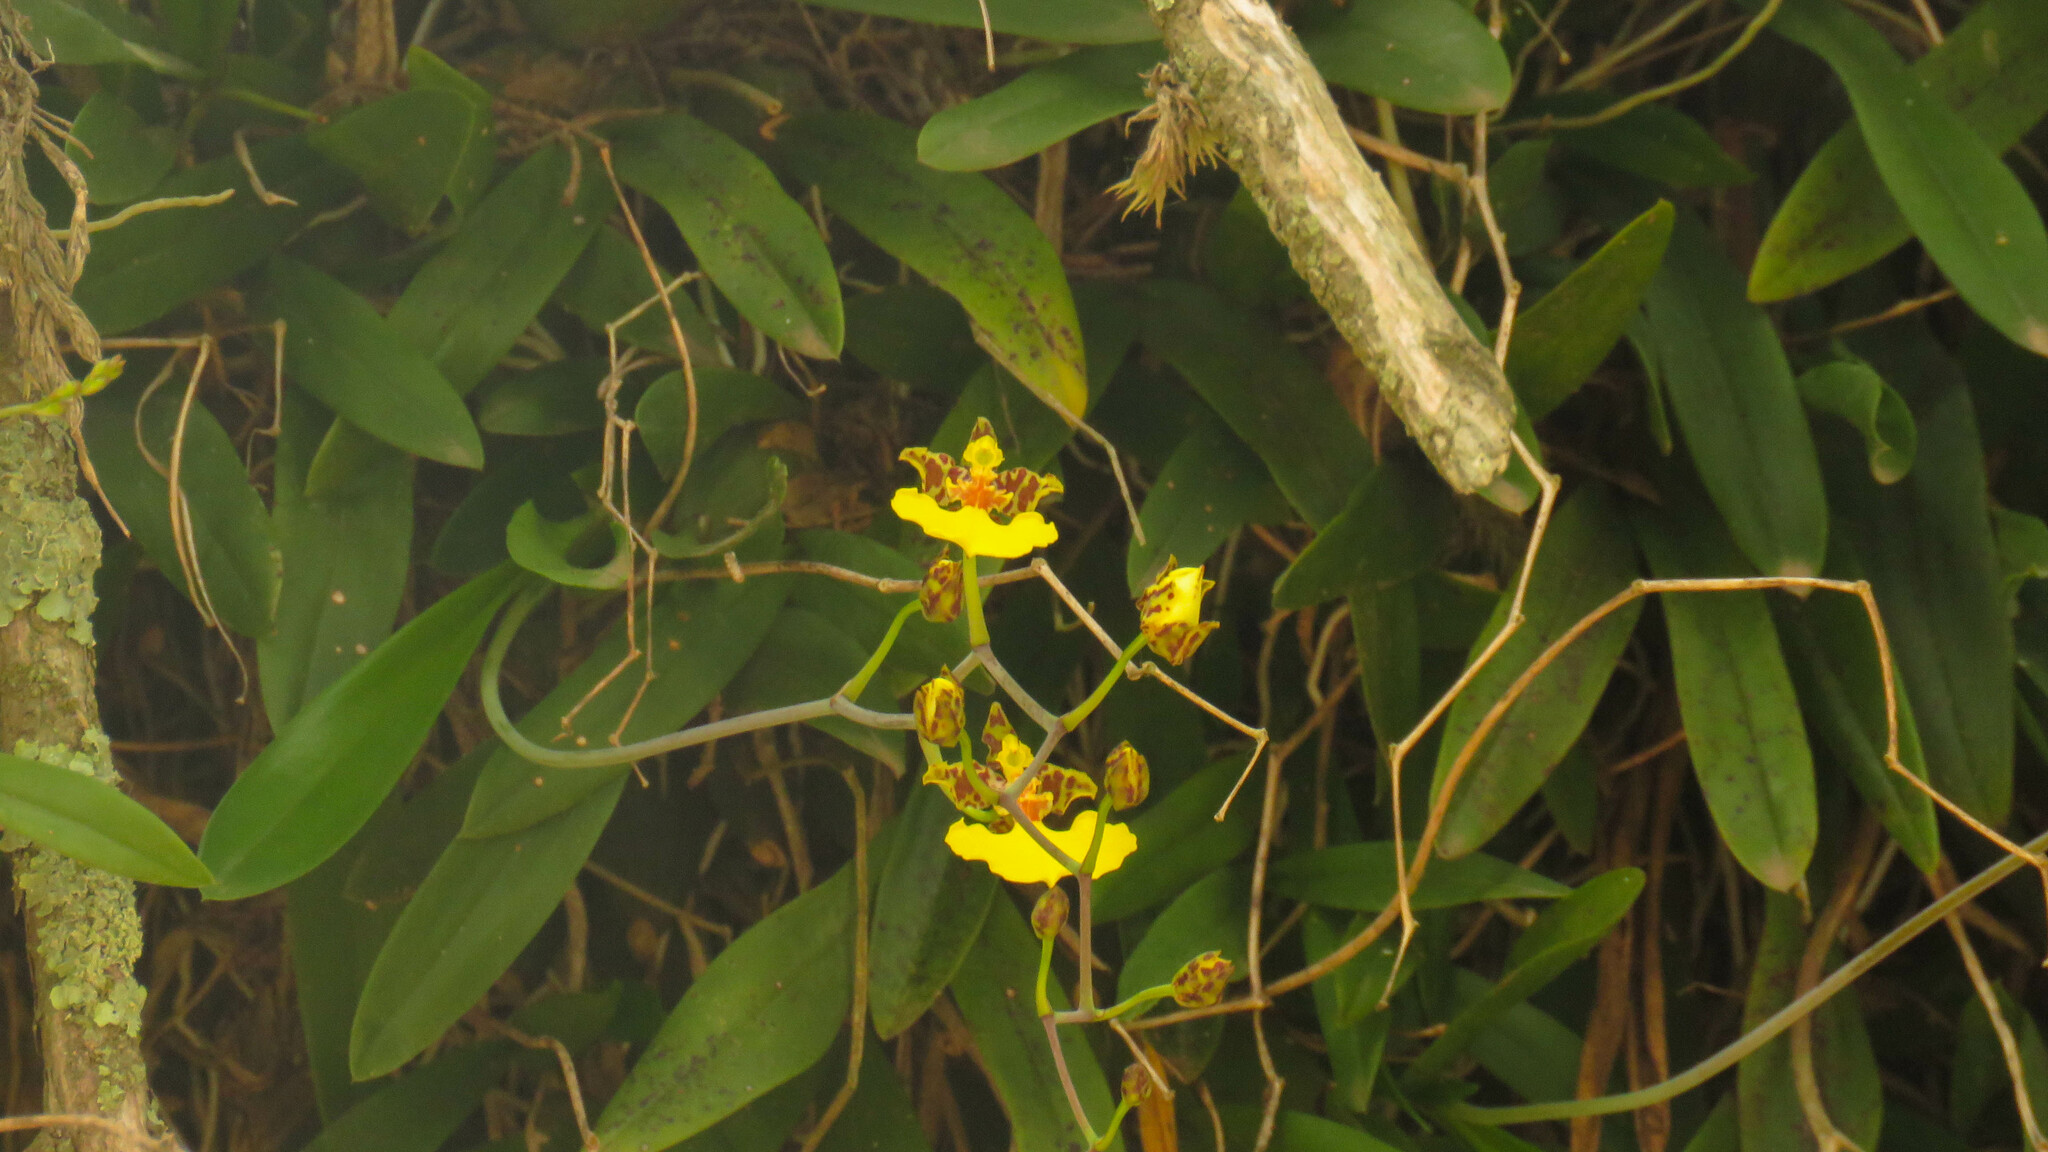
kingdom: Plantae
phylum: Tracheophyta
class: Liliopsida
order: Asparagales
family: Orchidaceae
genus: Gomesa
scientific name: Gomesa bifolia
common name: Dancing ladies
